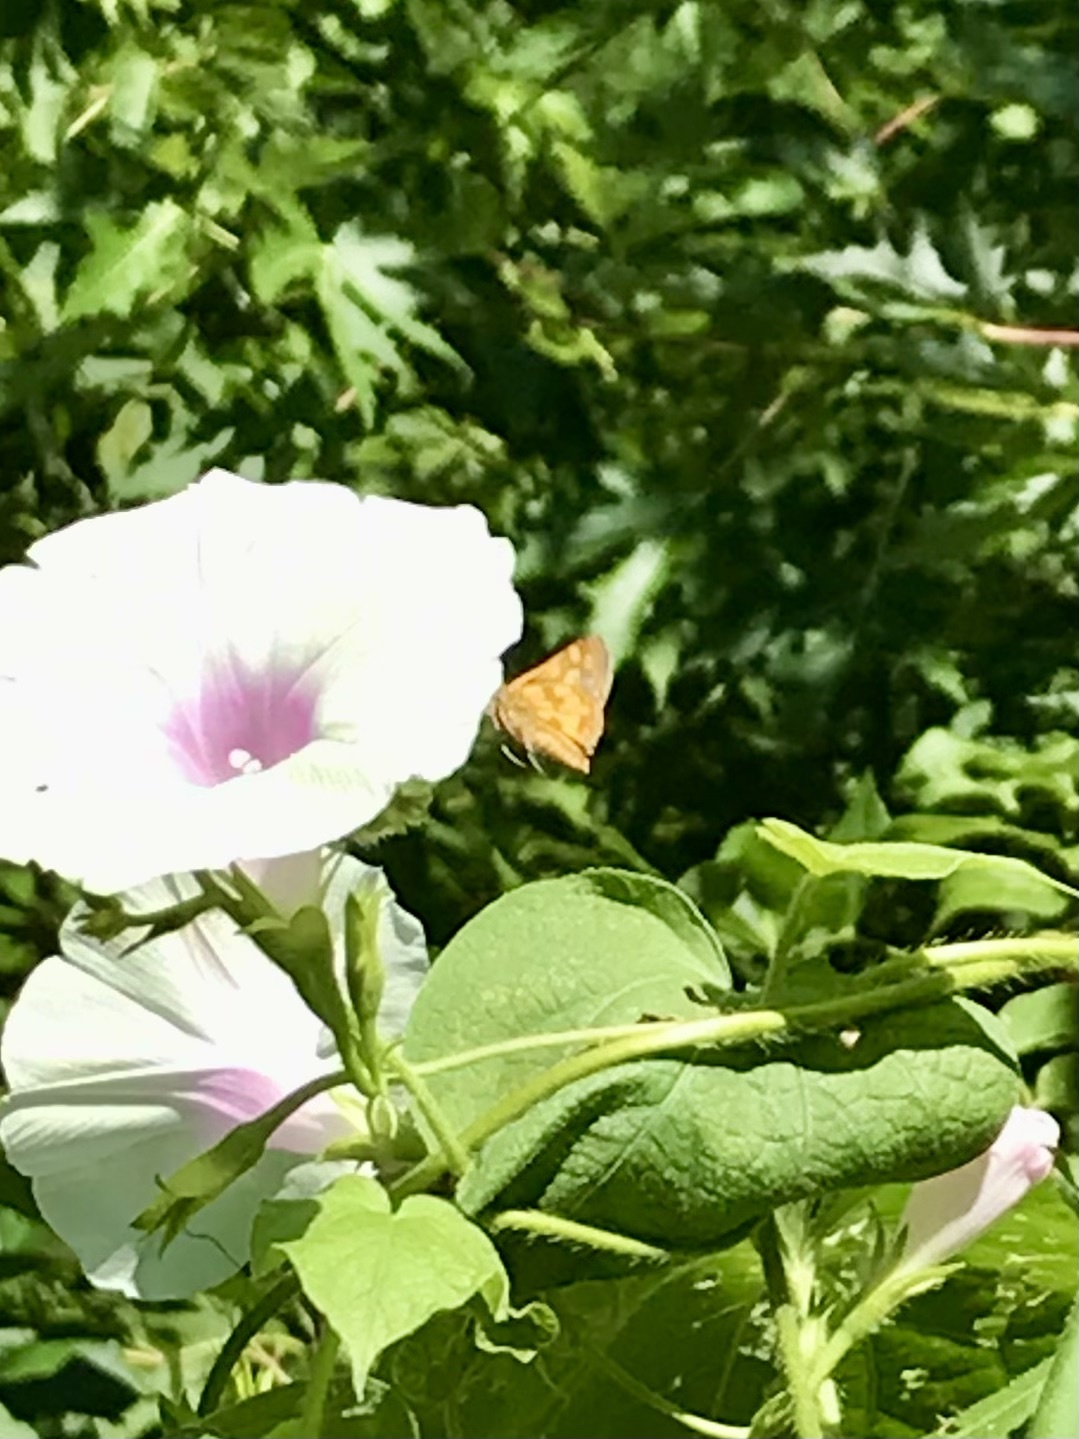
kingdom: Animalia
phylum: Arthropoda
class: Insecta
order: Lepidoptera
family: Hesperiidae
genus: Polites
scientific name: Polites coras
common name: Peck's skipper
